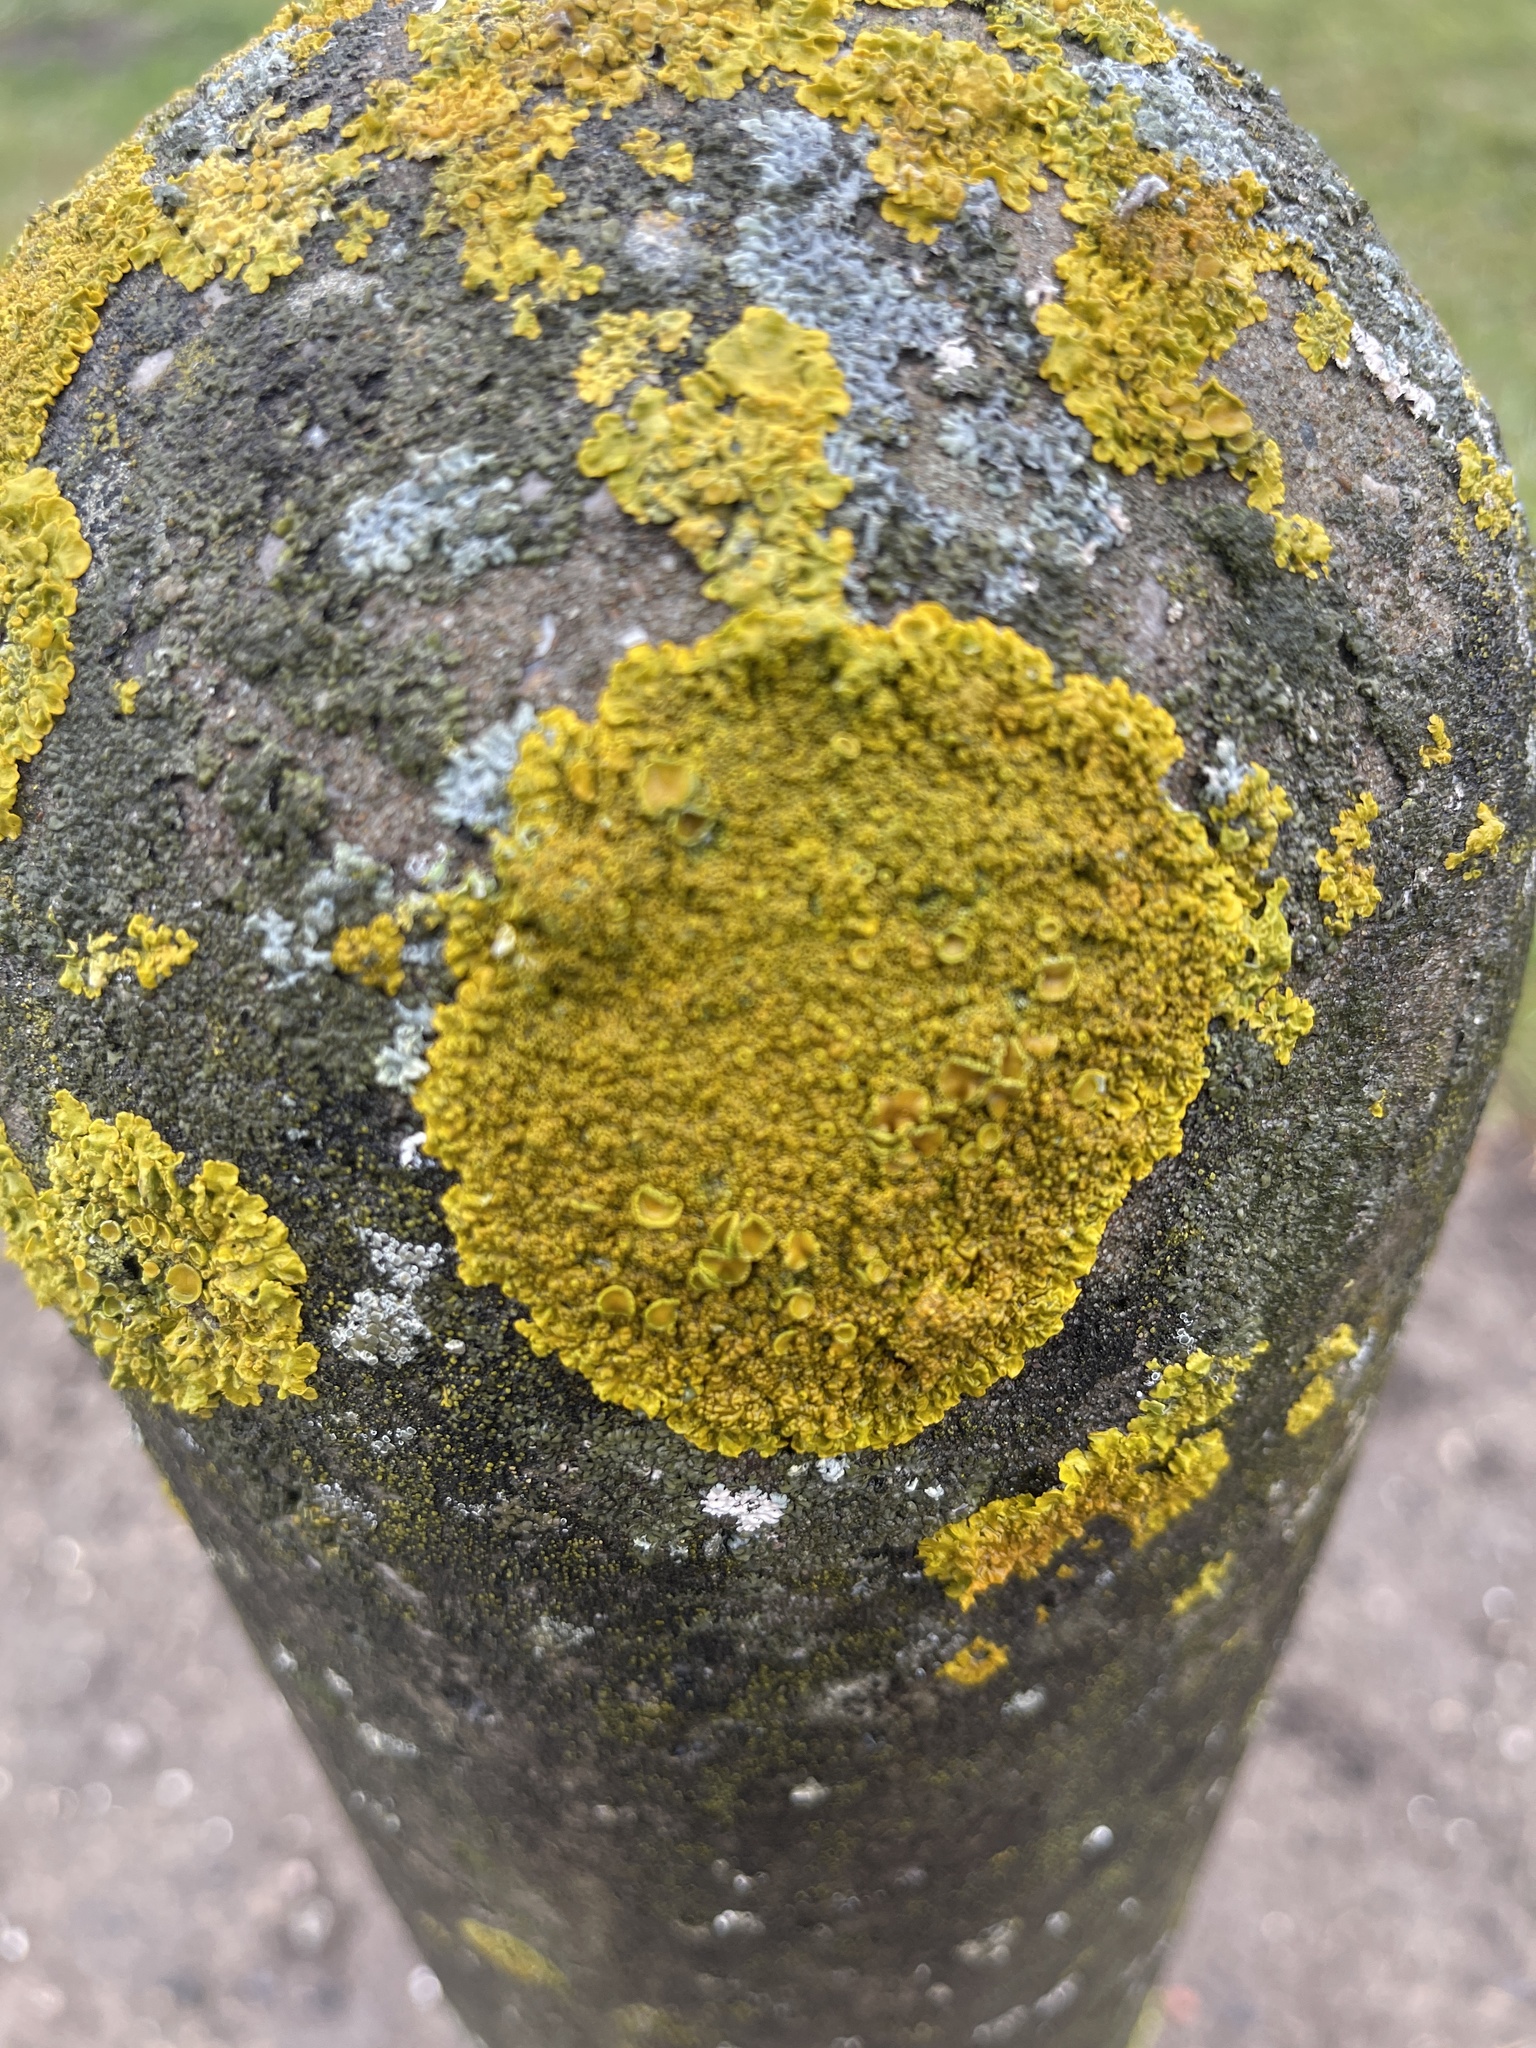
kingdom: Fungi
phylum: Ascomycota
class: Lecanoromycetes
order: Teloschistales
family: Teloschistaceae
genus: Xanthoria
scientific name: Xanthoria parietina
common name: Common orange lichen
